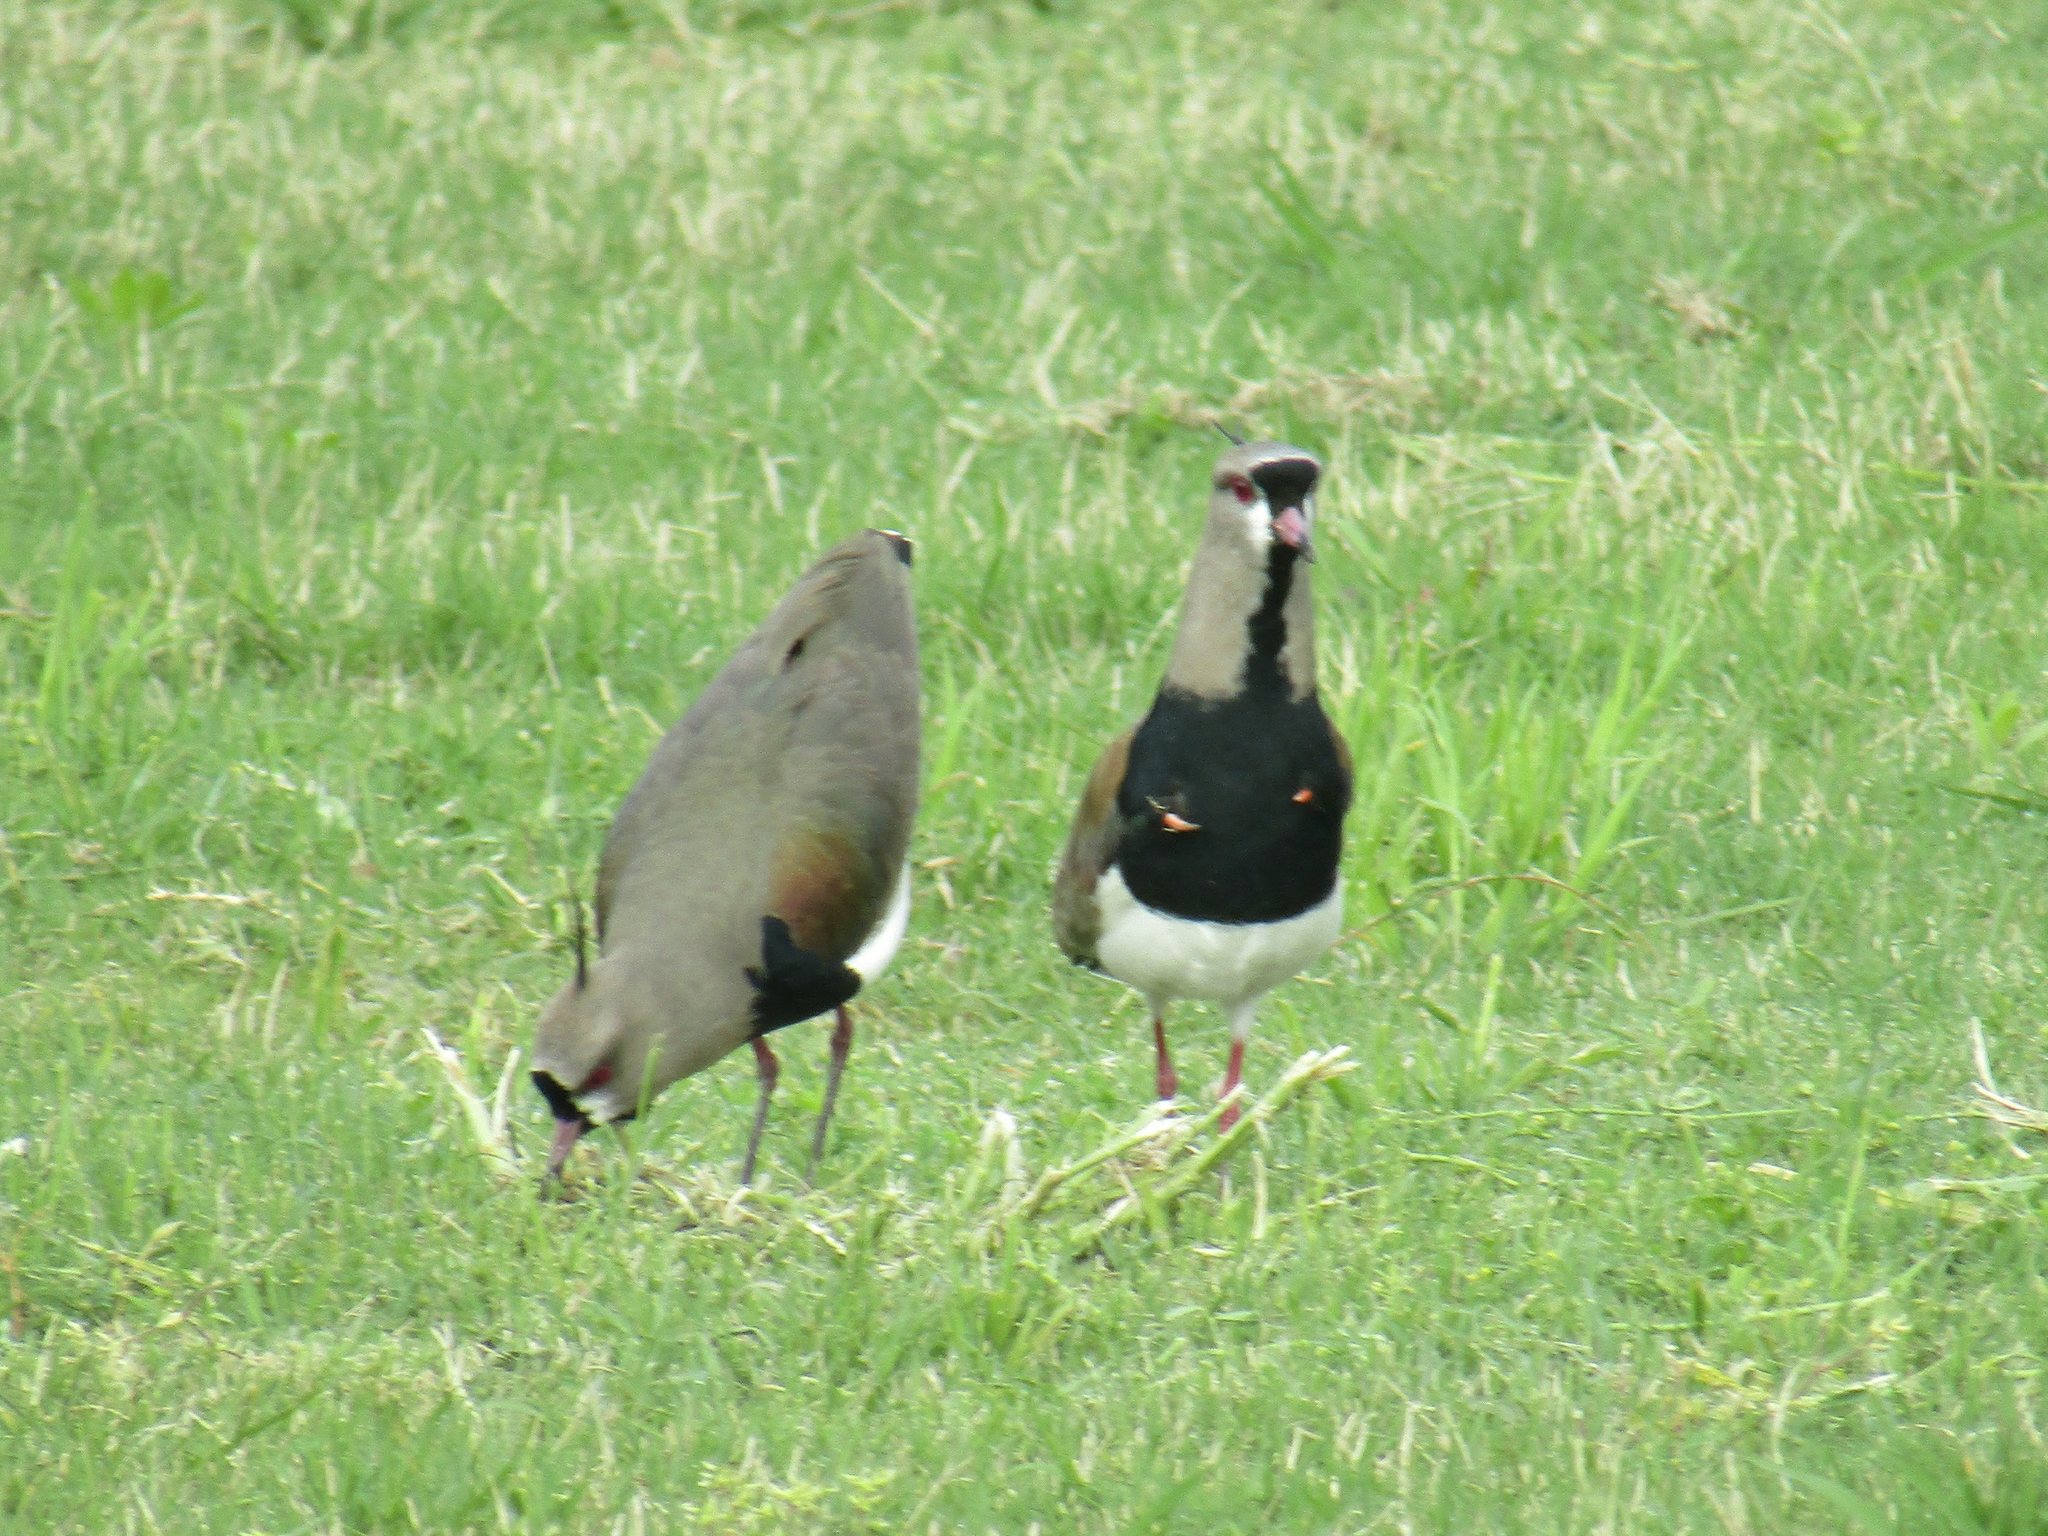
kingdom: Animalia
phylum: Chordata
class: Aves
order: Charadriiformes
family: Charadriidae
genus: Vanellus
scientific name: Vanellus chilensis
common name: Southern lapwing
